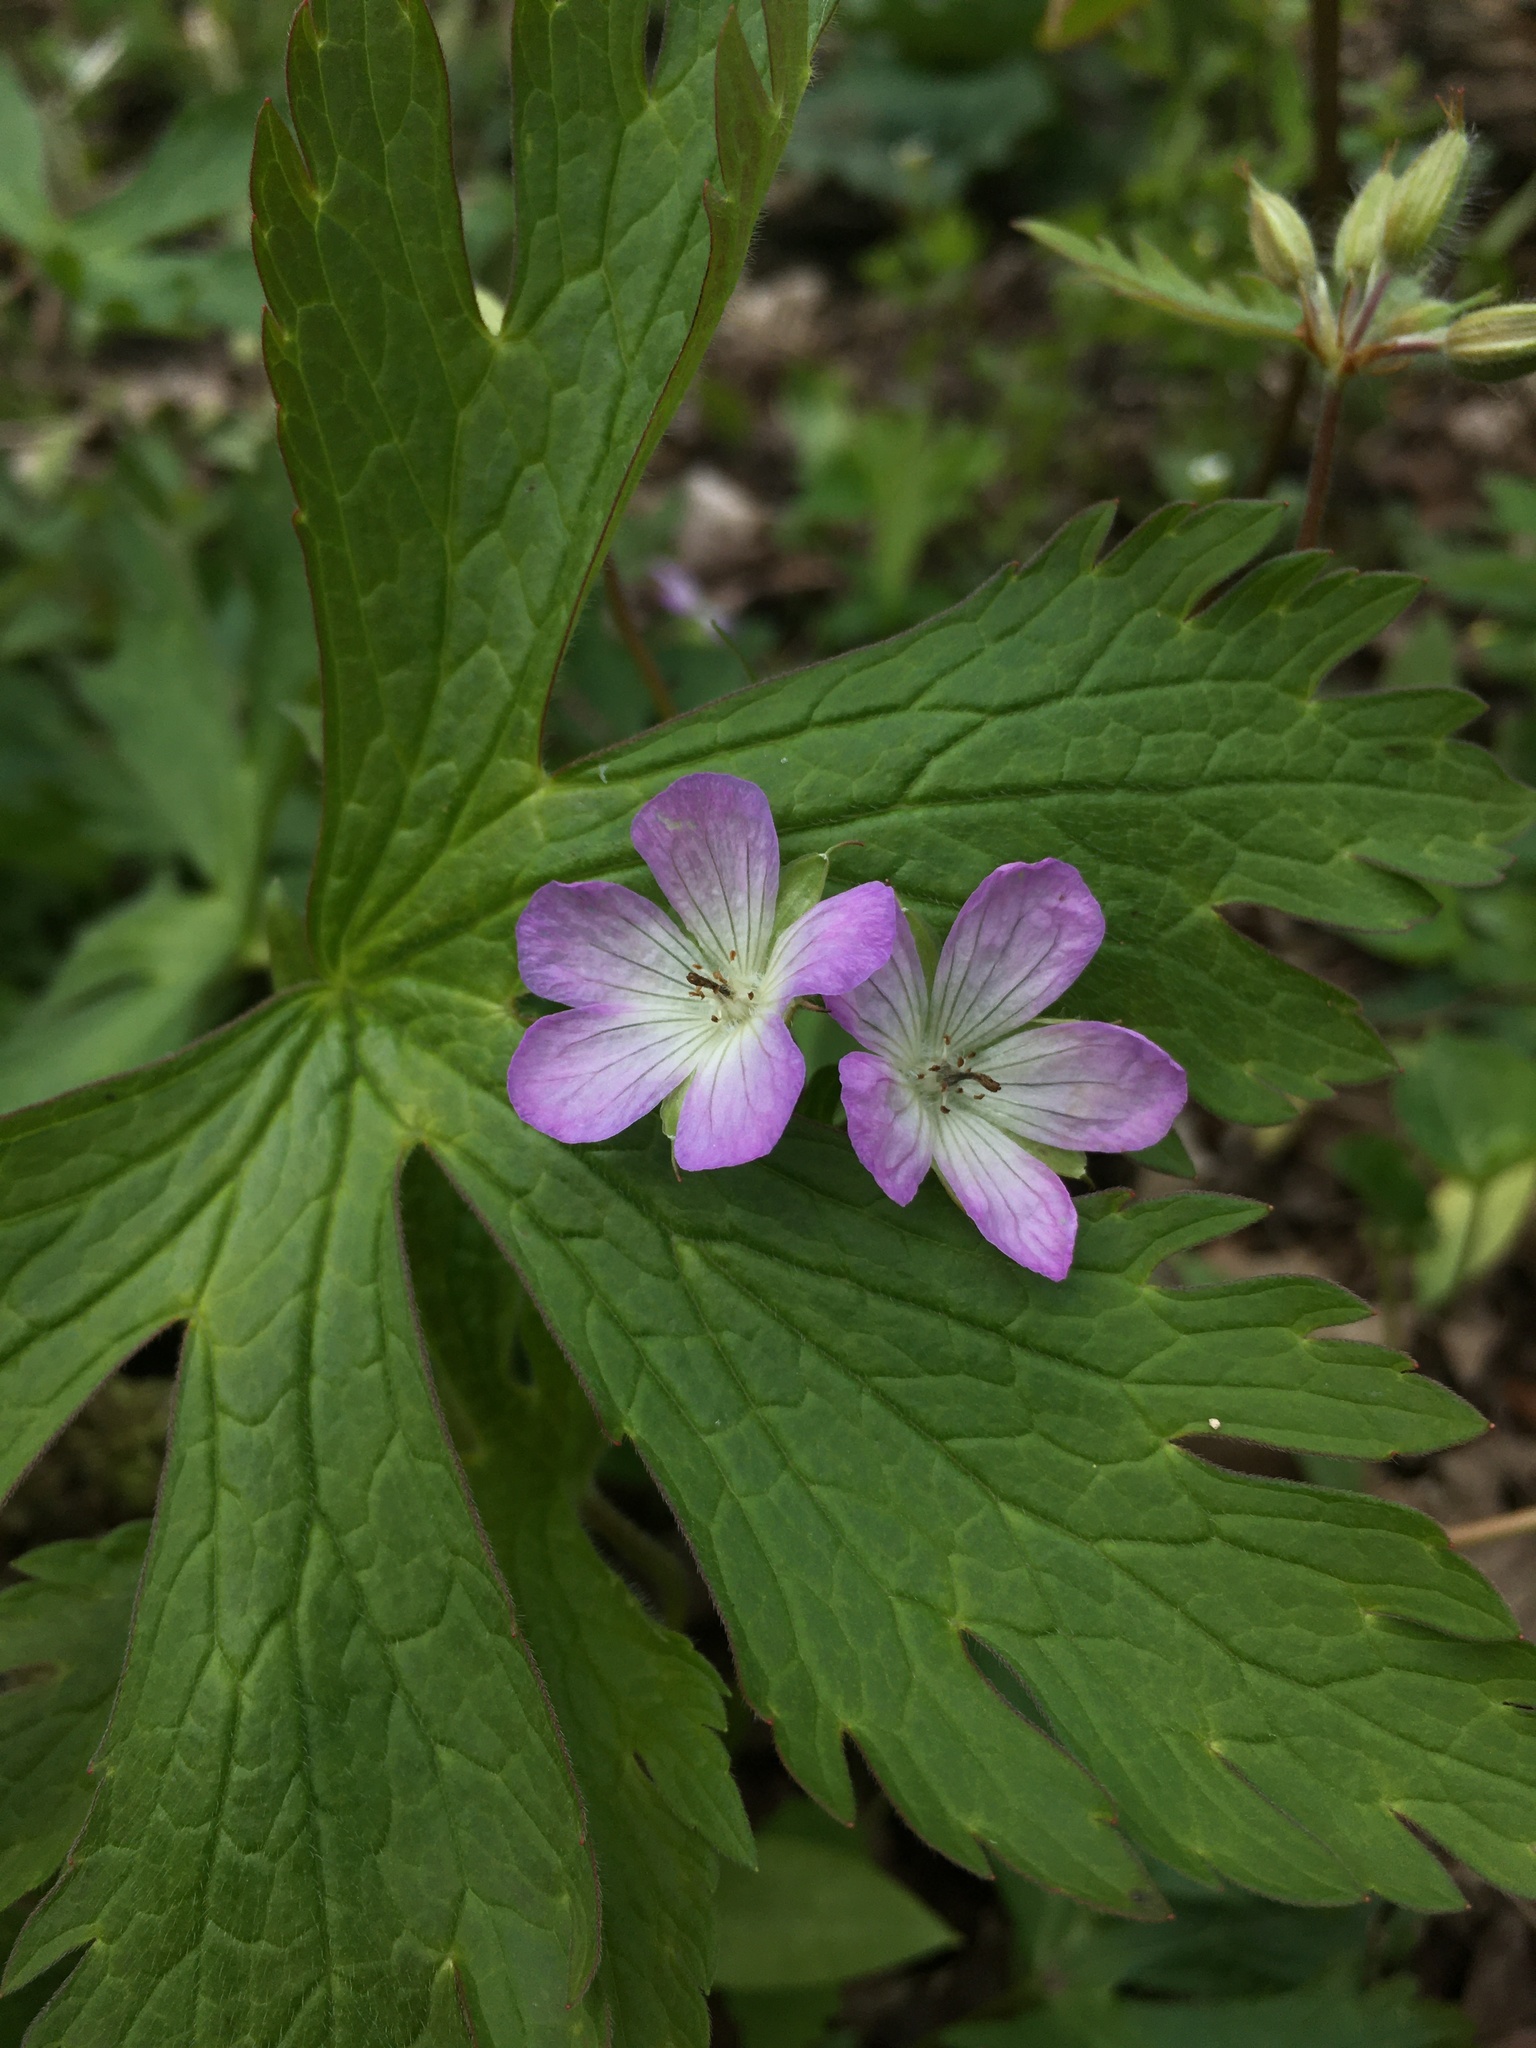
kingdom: Plantae
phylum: Tracheophyta
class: Magnoliopsida
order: Geraniales
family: Geraniaceae
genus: Geranium
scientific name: Geranium maculatum
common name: Spotted geranium
